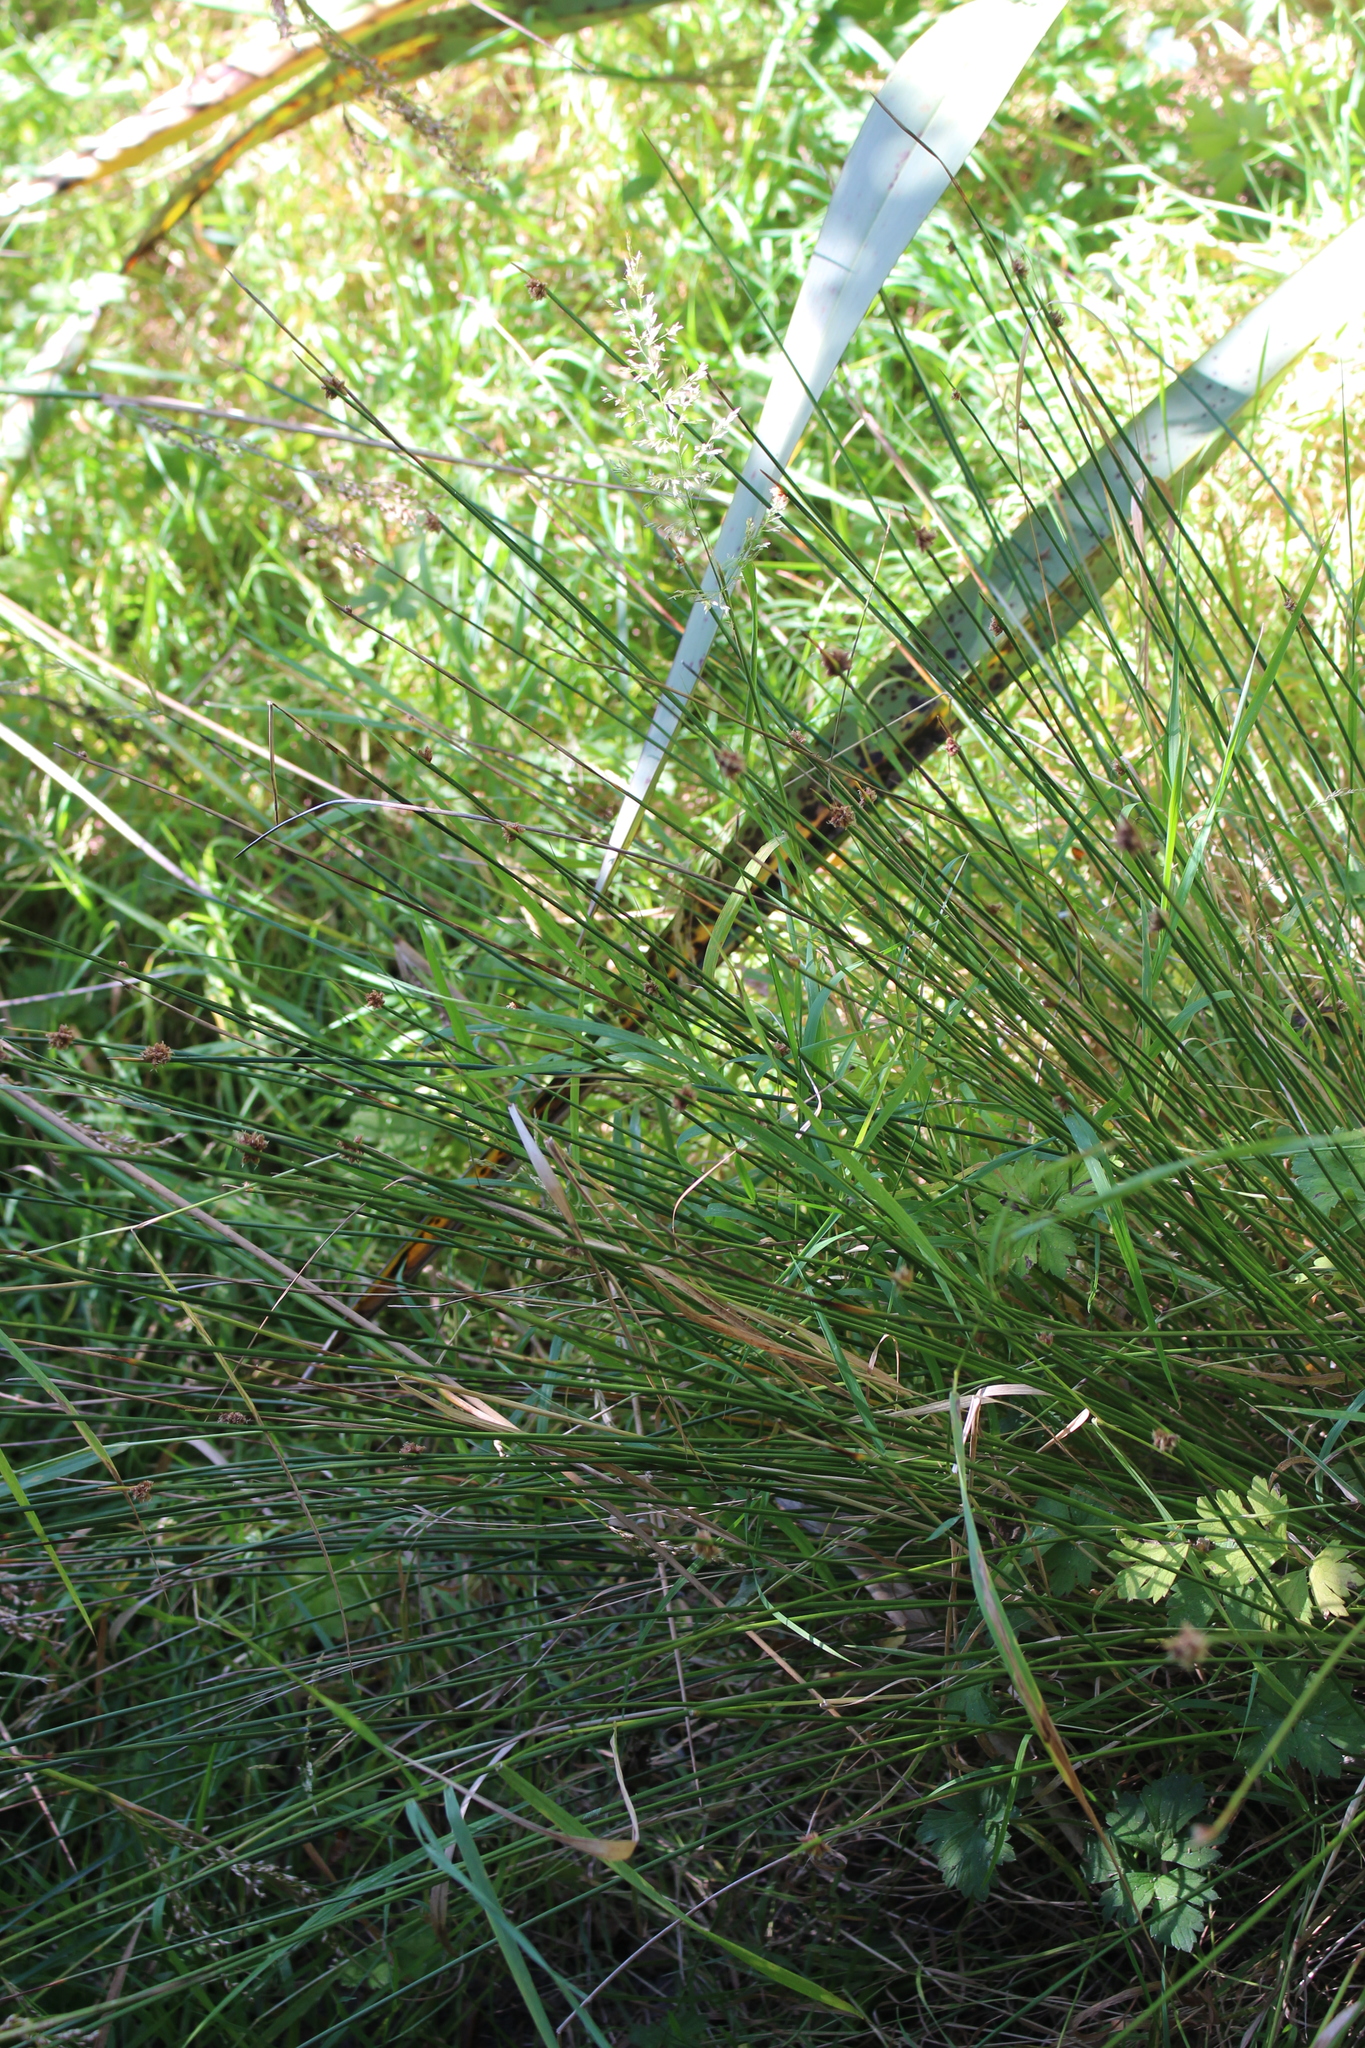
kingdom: Plantae
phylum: Tracheophyta
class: Liliopsida
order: Poales
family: Cyperaceae
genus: Ficinia
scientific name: Ficinia nodosa
